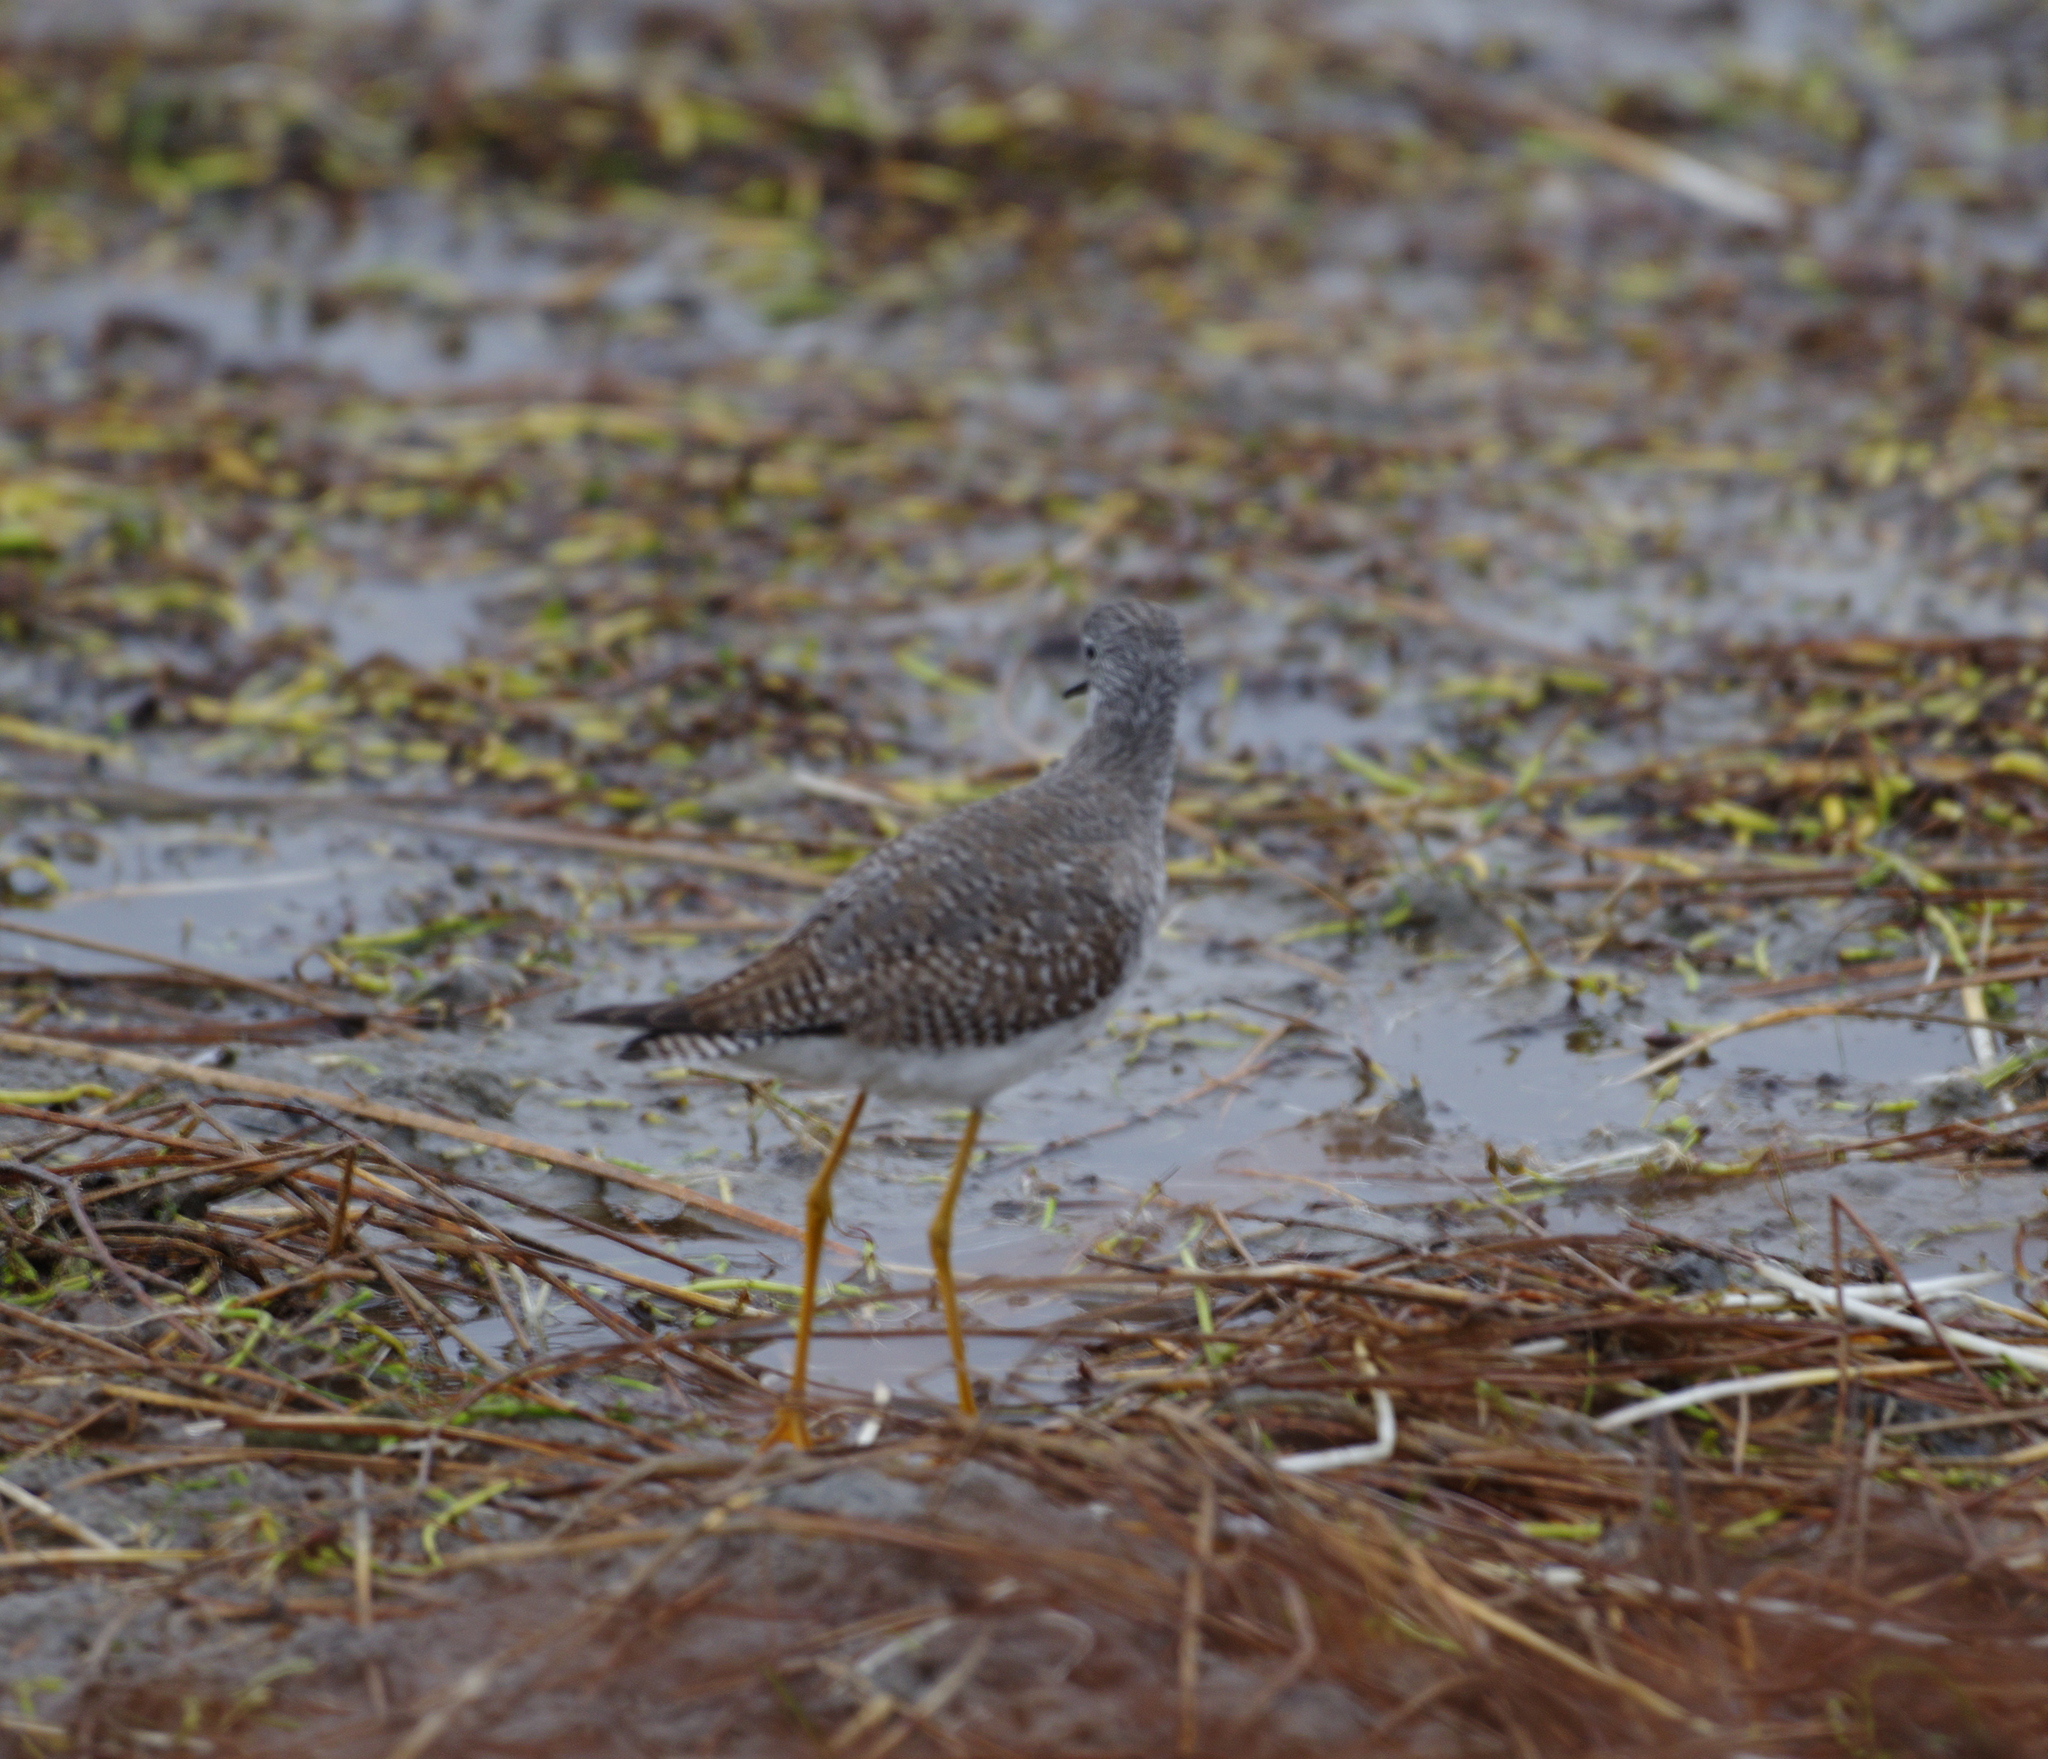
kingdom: Animalia
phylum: Chordata
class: Aves
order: Charadriiformes
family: Scolopacidae
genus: Tringa
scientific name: Tringa flavipes
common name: Lesser yellowlegs
